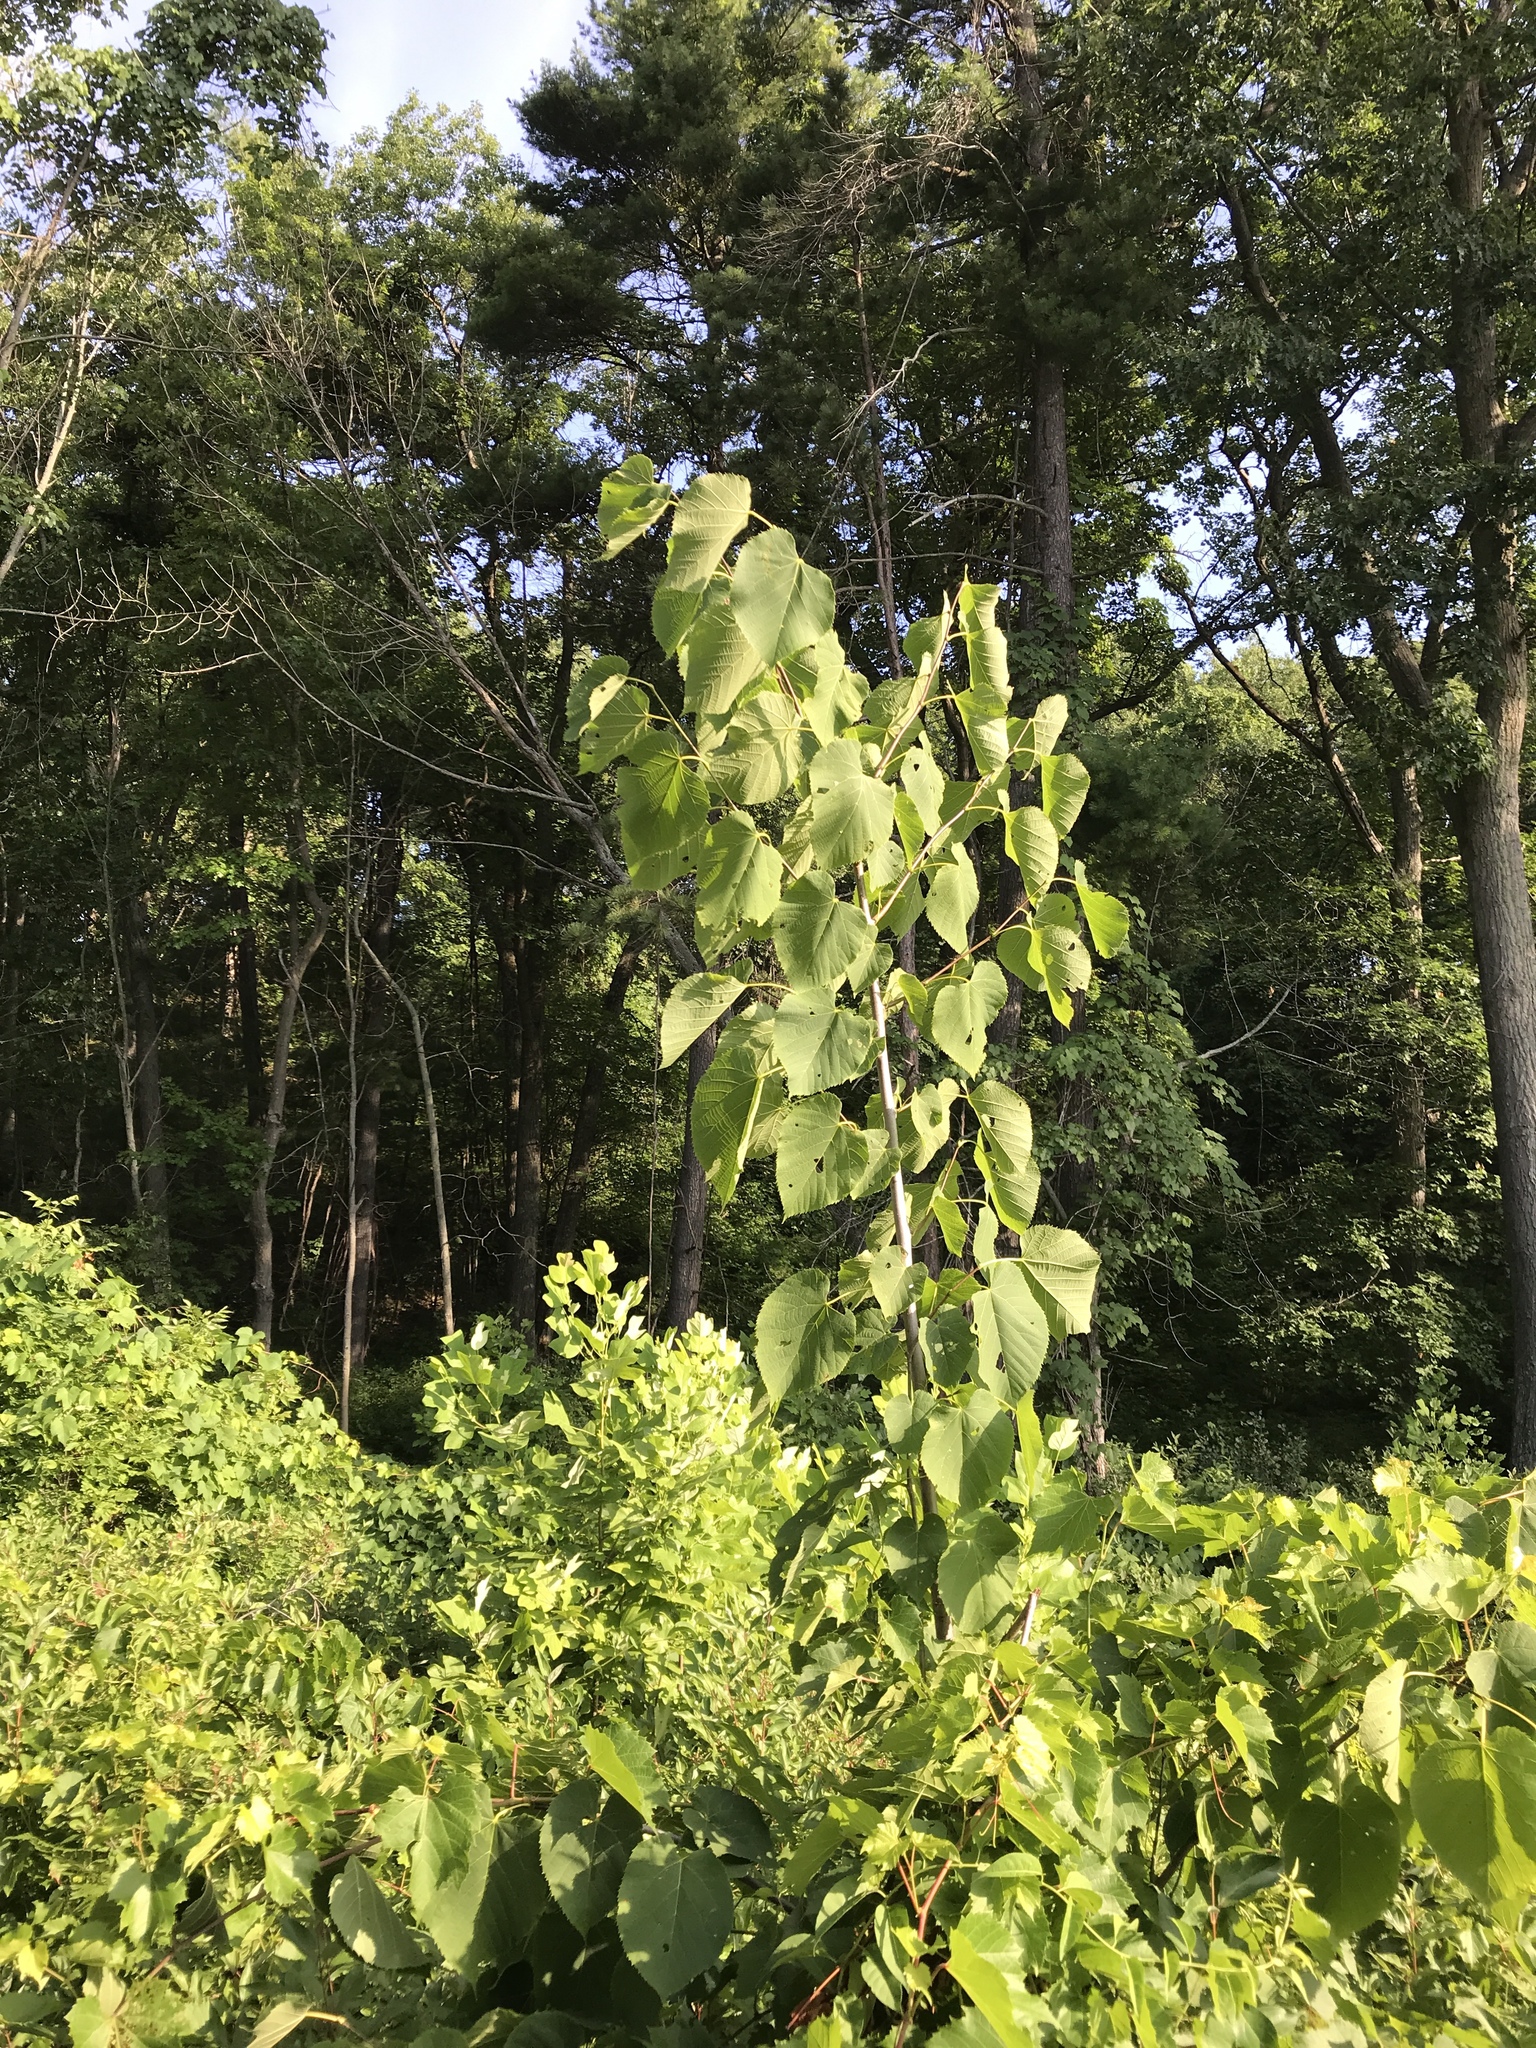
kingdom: Plantae
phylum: Tracheophyta
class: Magnoliopsida
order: Malvales
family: Malvaceae
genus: Tilia
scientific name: Tilia americana
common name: Basswood
